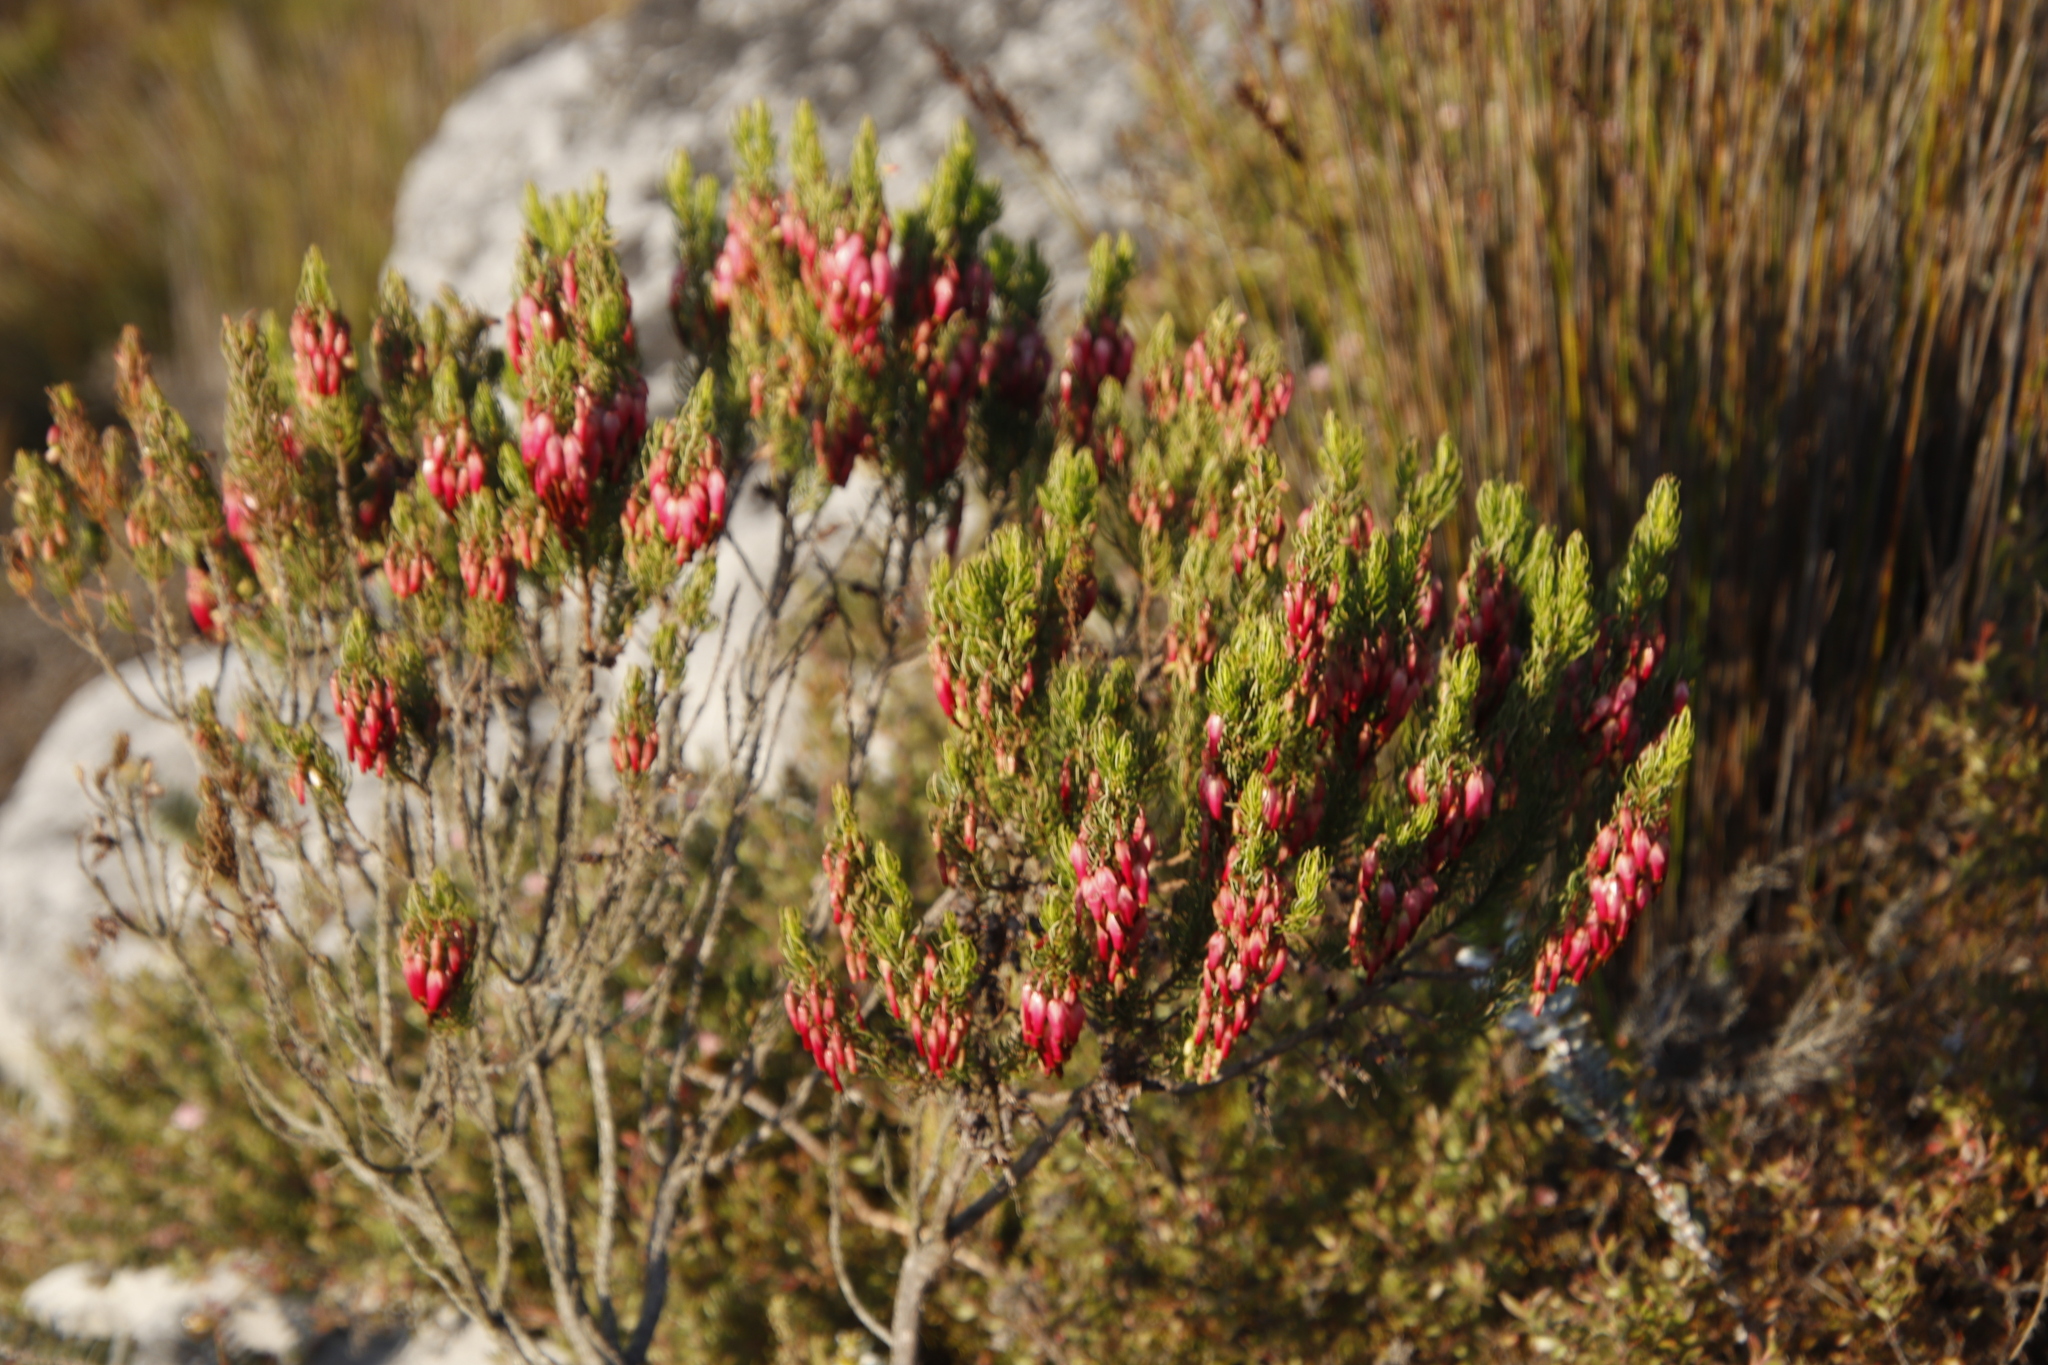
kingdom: Plantae
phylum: Tracheophyta
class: Magnoliopsida
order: Ericales
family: Ericaceae
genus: Erica
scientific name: Erica plukenetii
